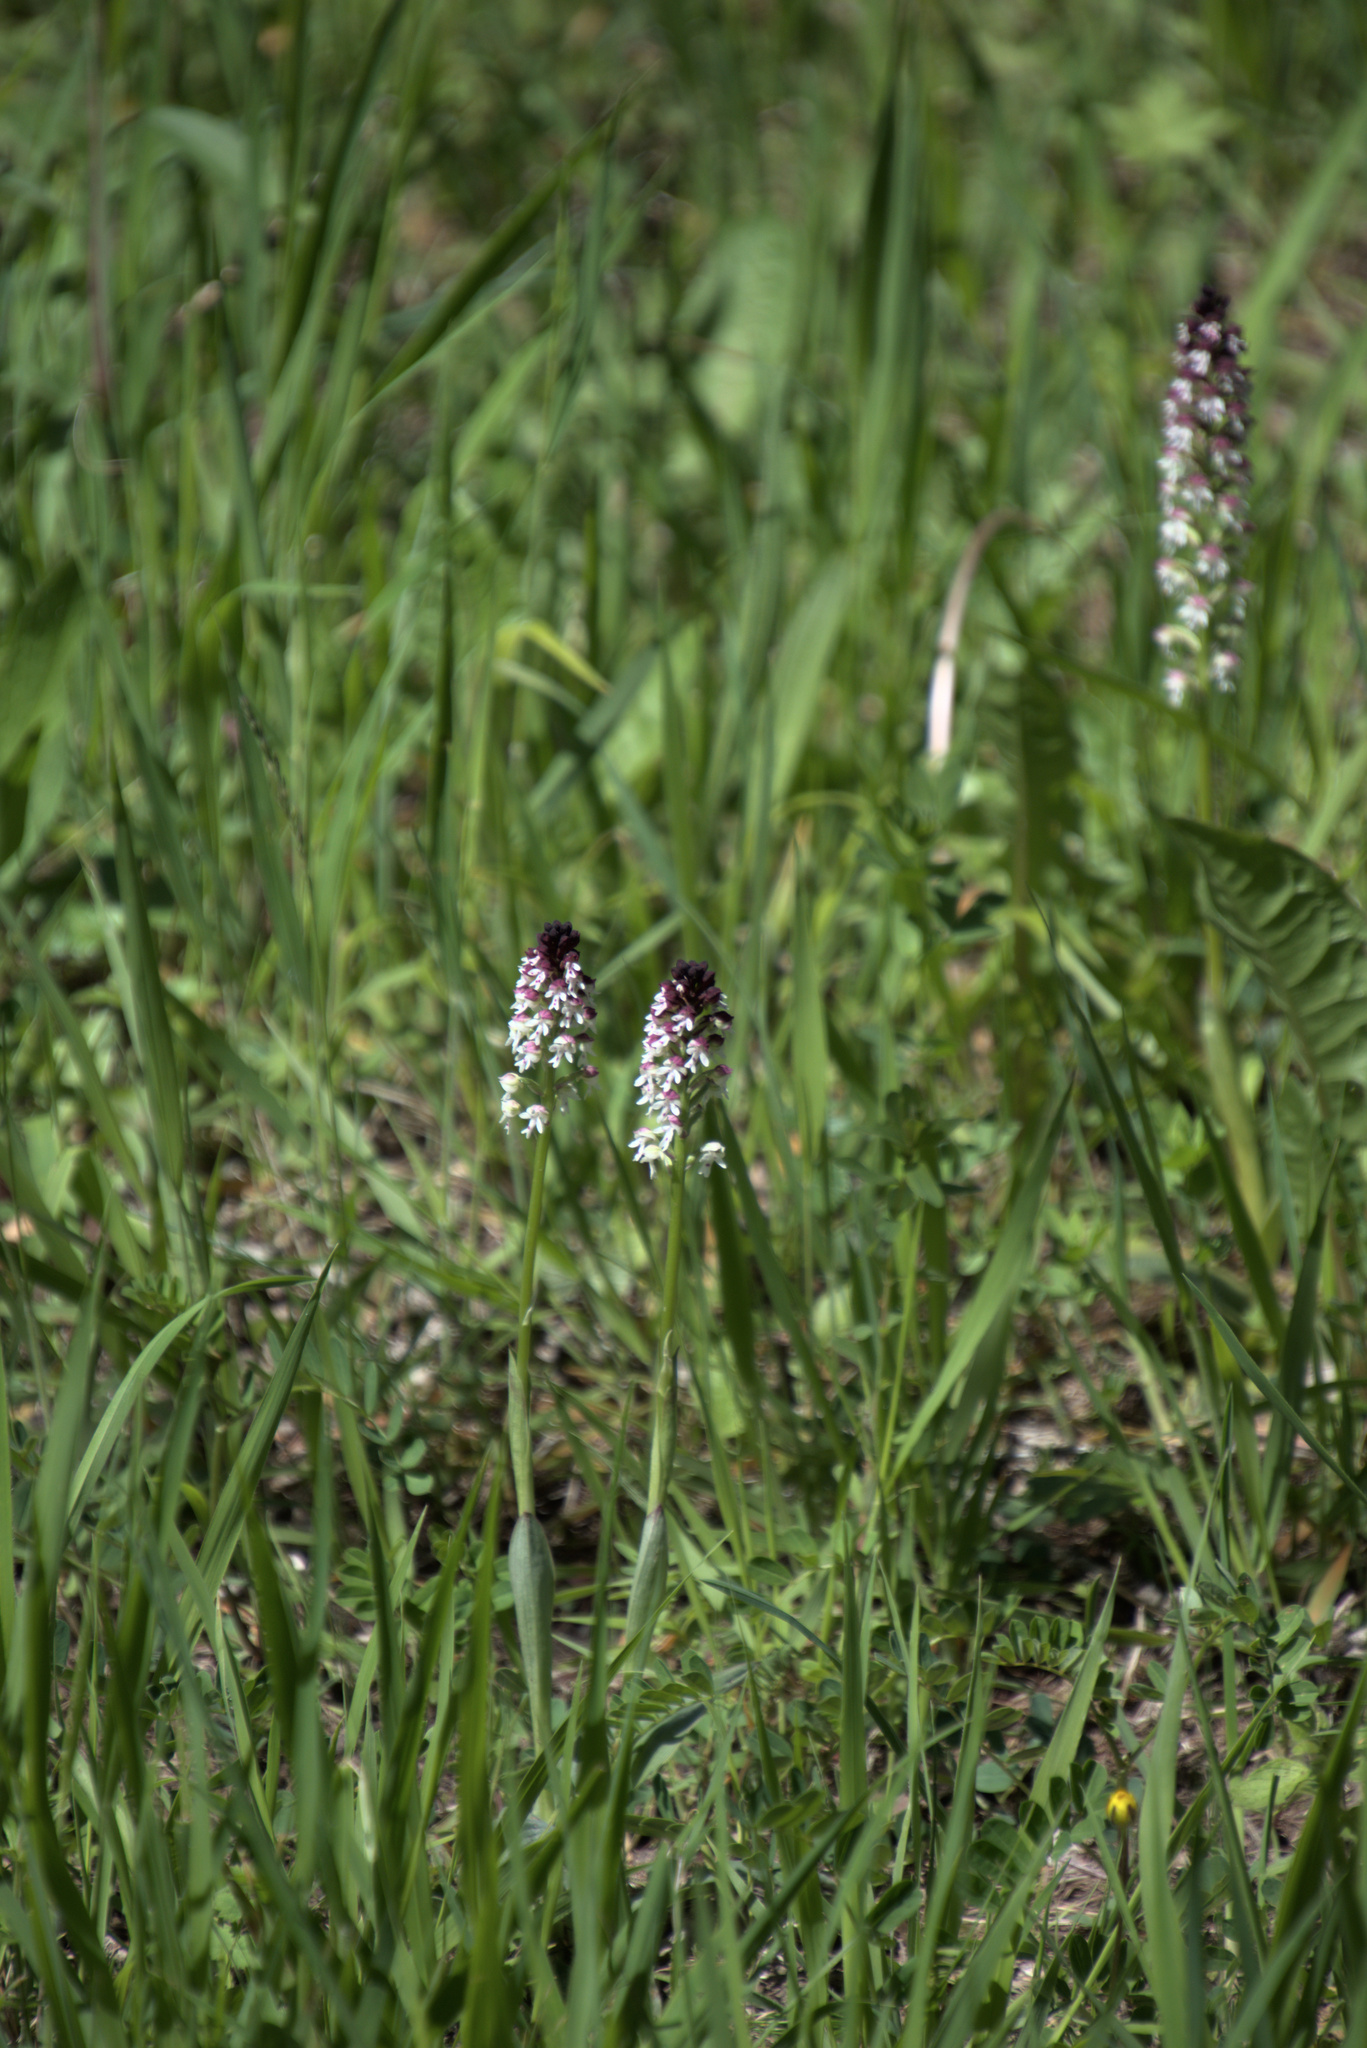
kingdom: Plantae
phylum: Tracheophyta
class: Liliopsida
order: Asparagales
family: Orchidaceae
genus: Neotinea
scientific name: Neotinea ustulata
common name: Burnt orchid
